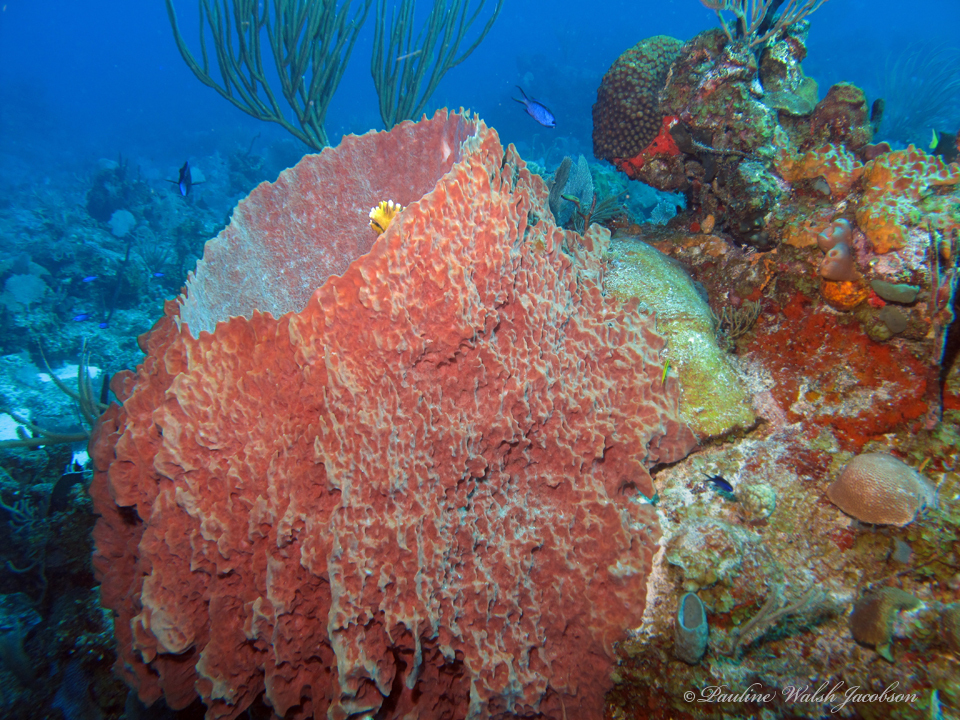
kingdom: Animalia
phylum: Porifera
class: Demospongiae
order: Haplosclerida
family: Petrosiidae
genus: Xestospongia
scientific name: Xestospongia muta
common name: Giant barrel sponge
